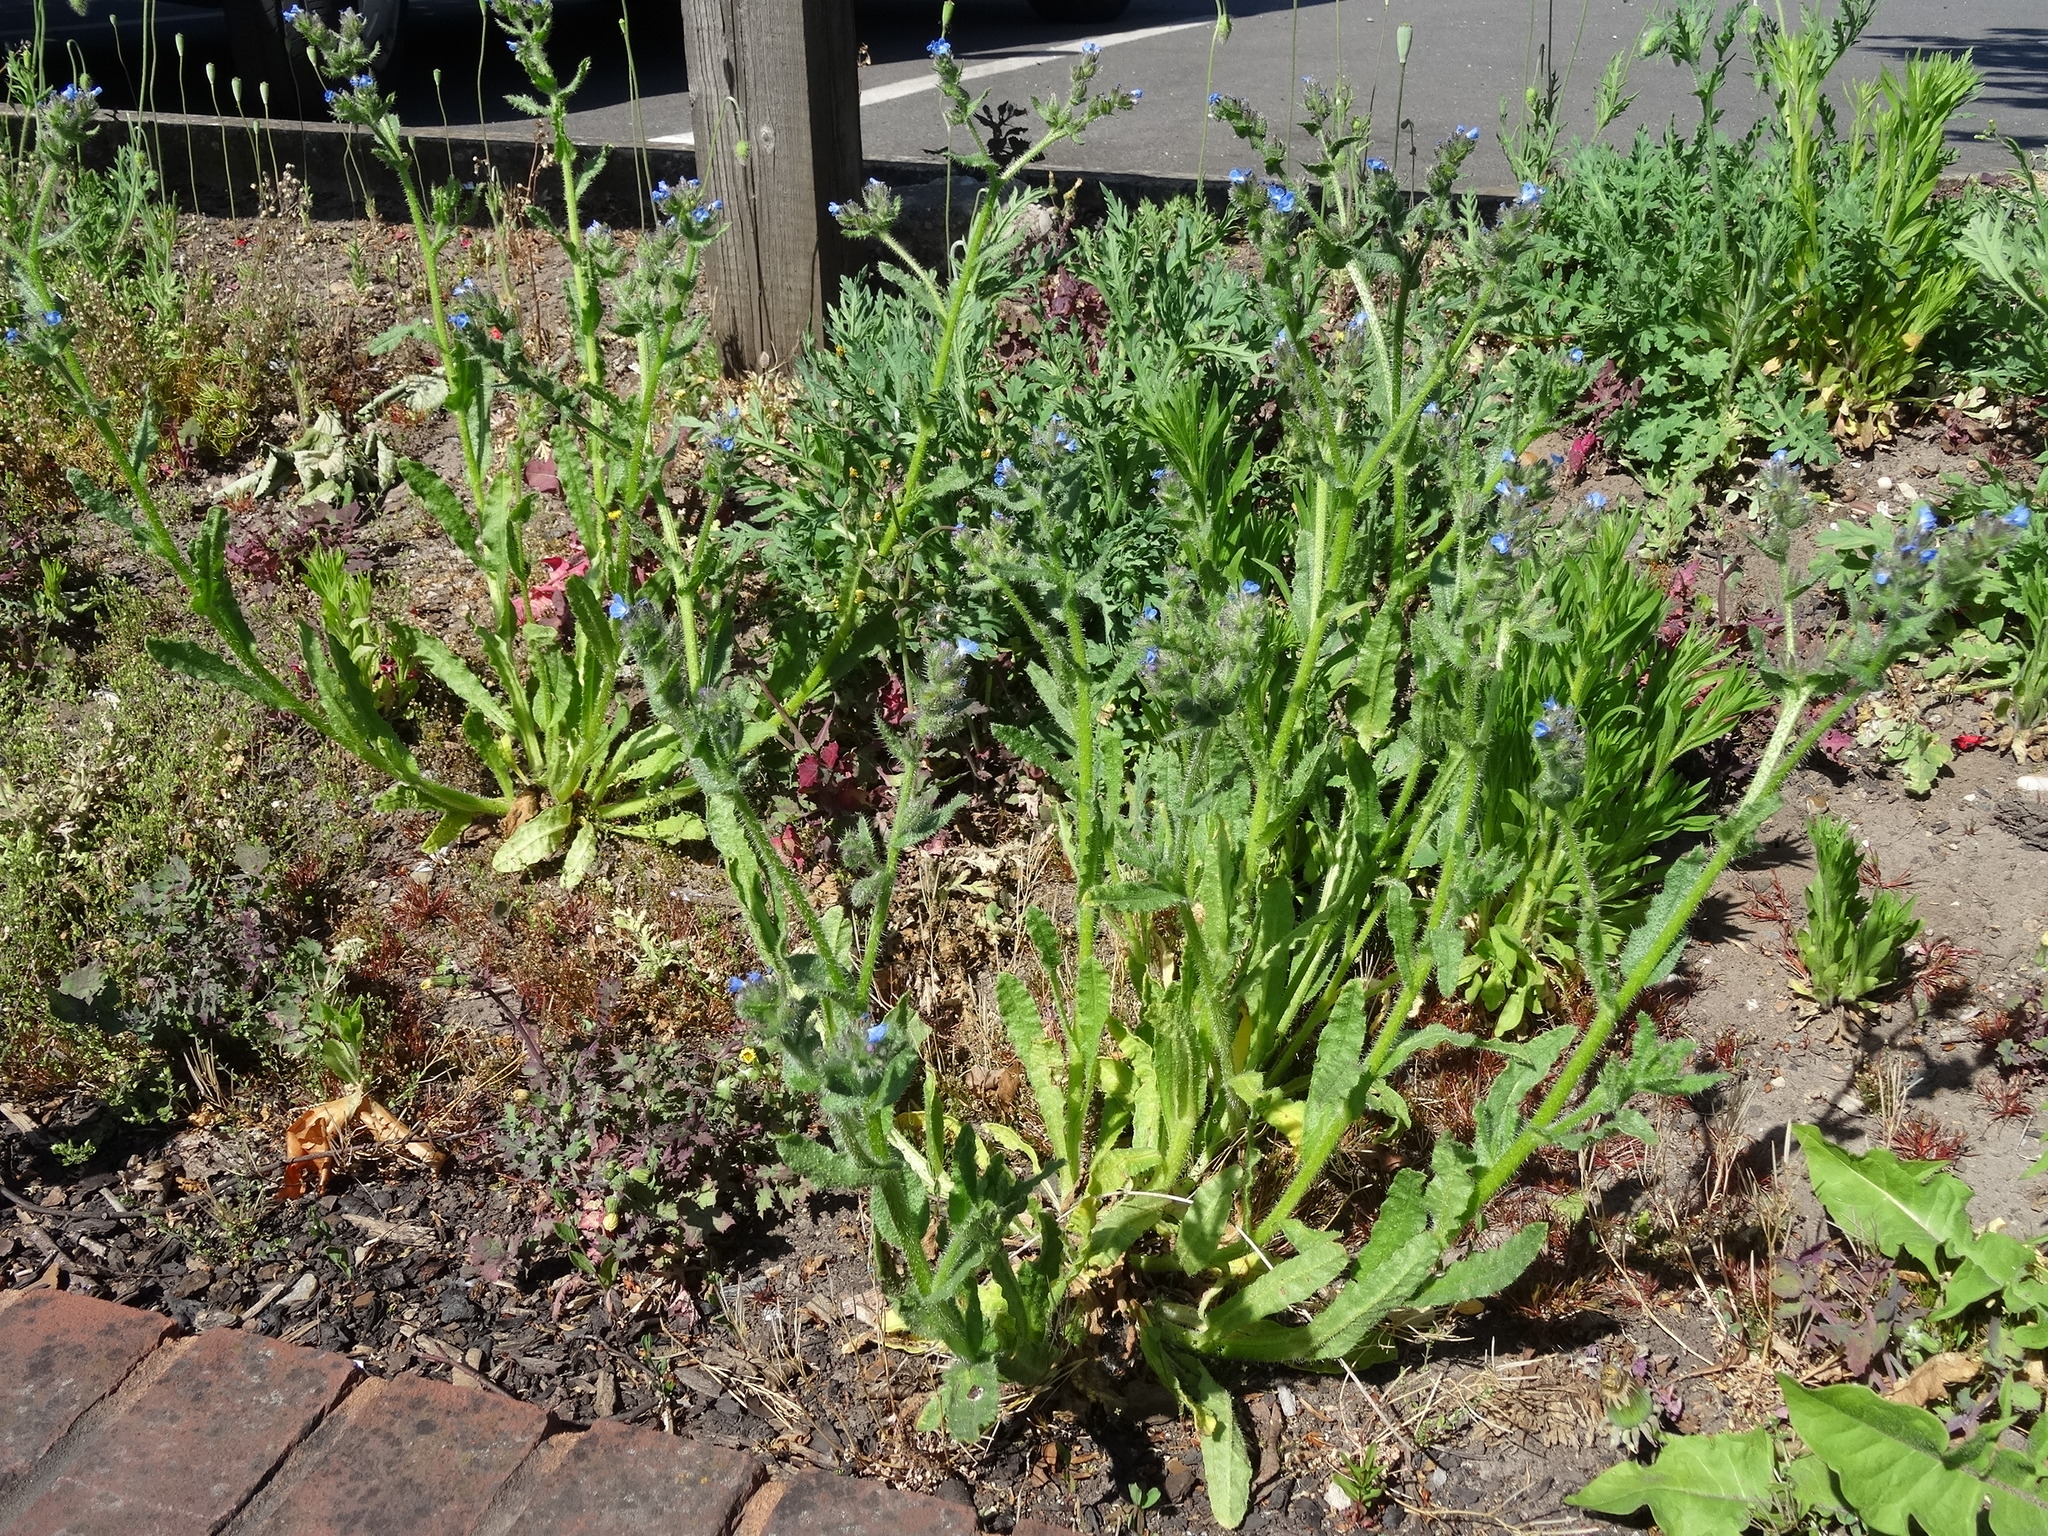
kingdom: Plantae
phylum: Tracheophyta
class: Magnoliopsida
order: Boraginales
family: Boraginaceae
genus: Lycopsis
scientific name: Lycopsis arvensis
